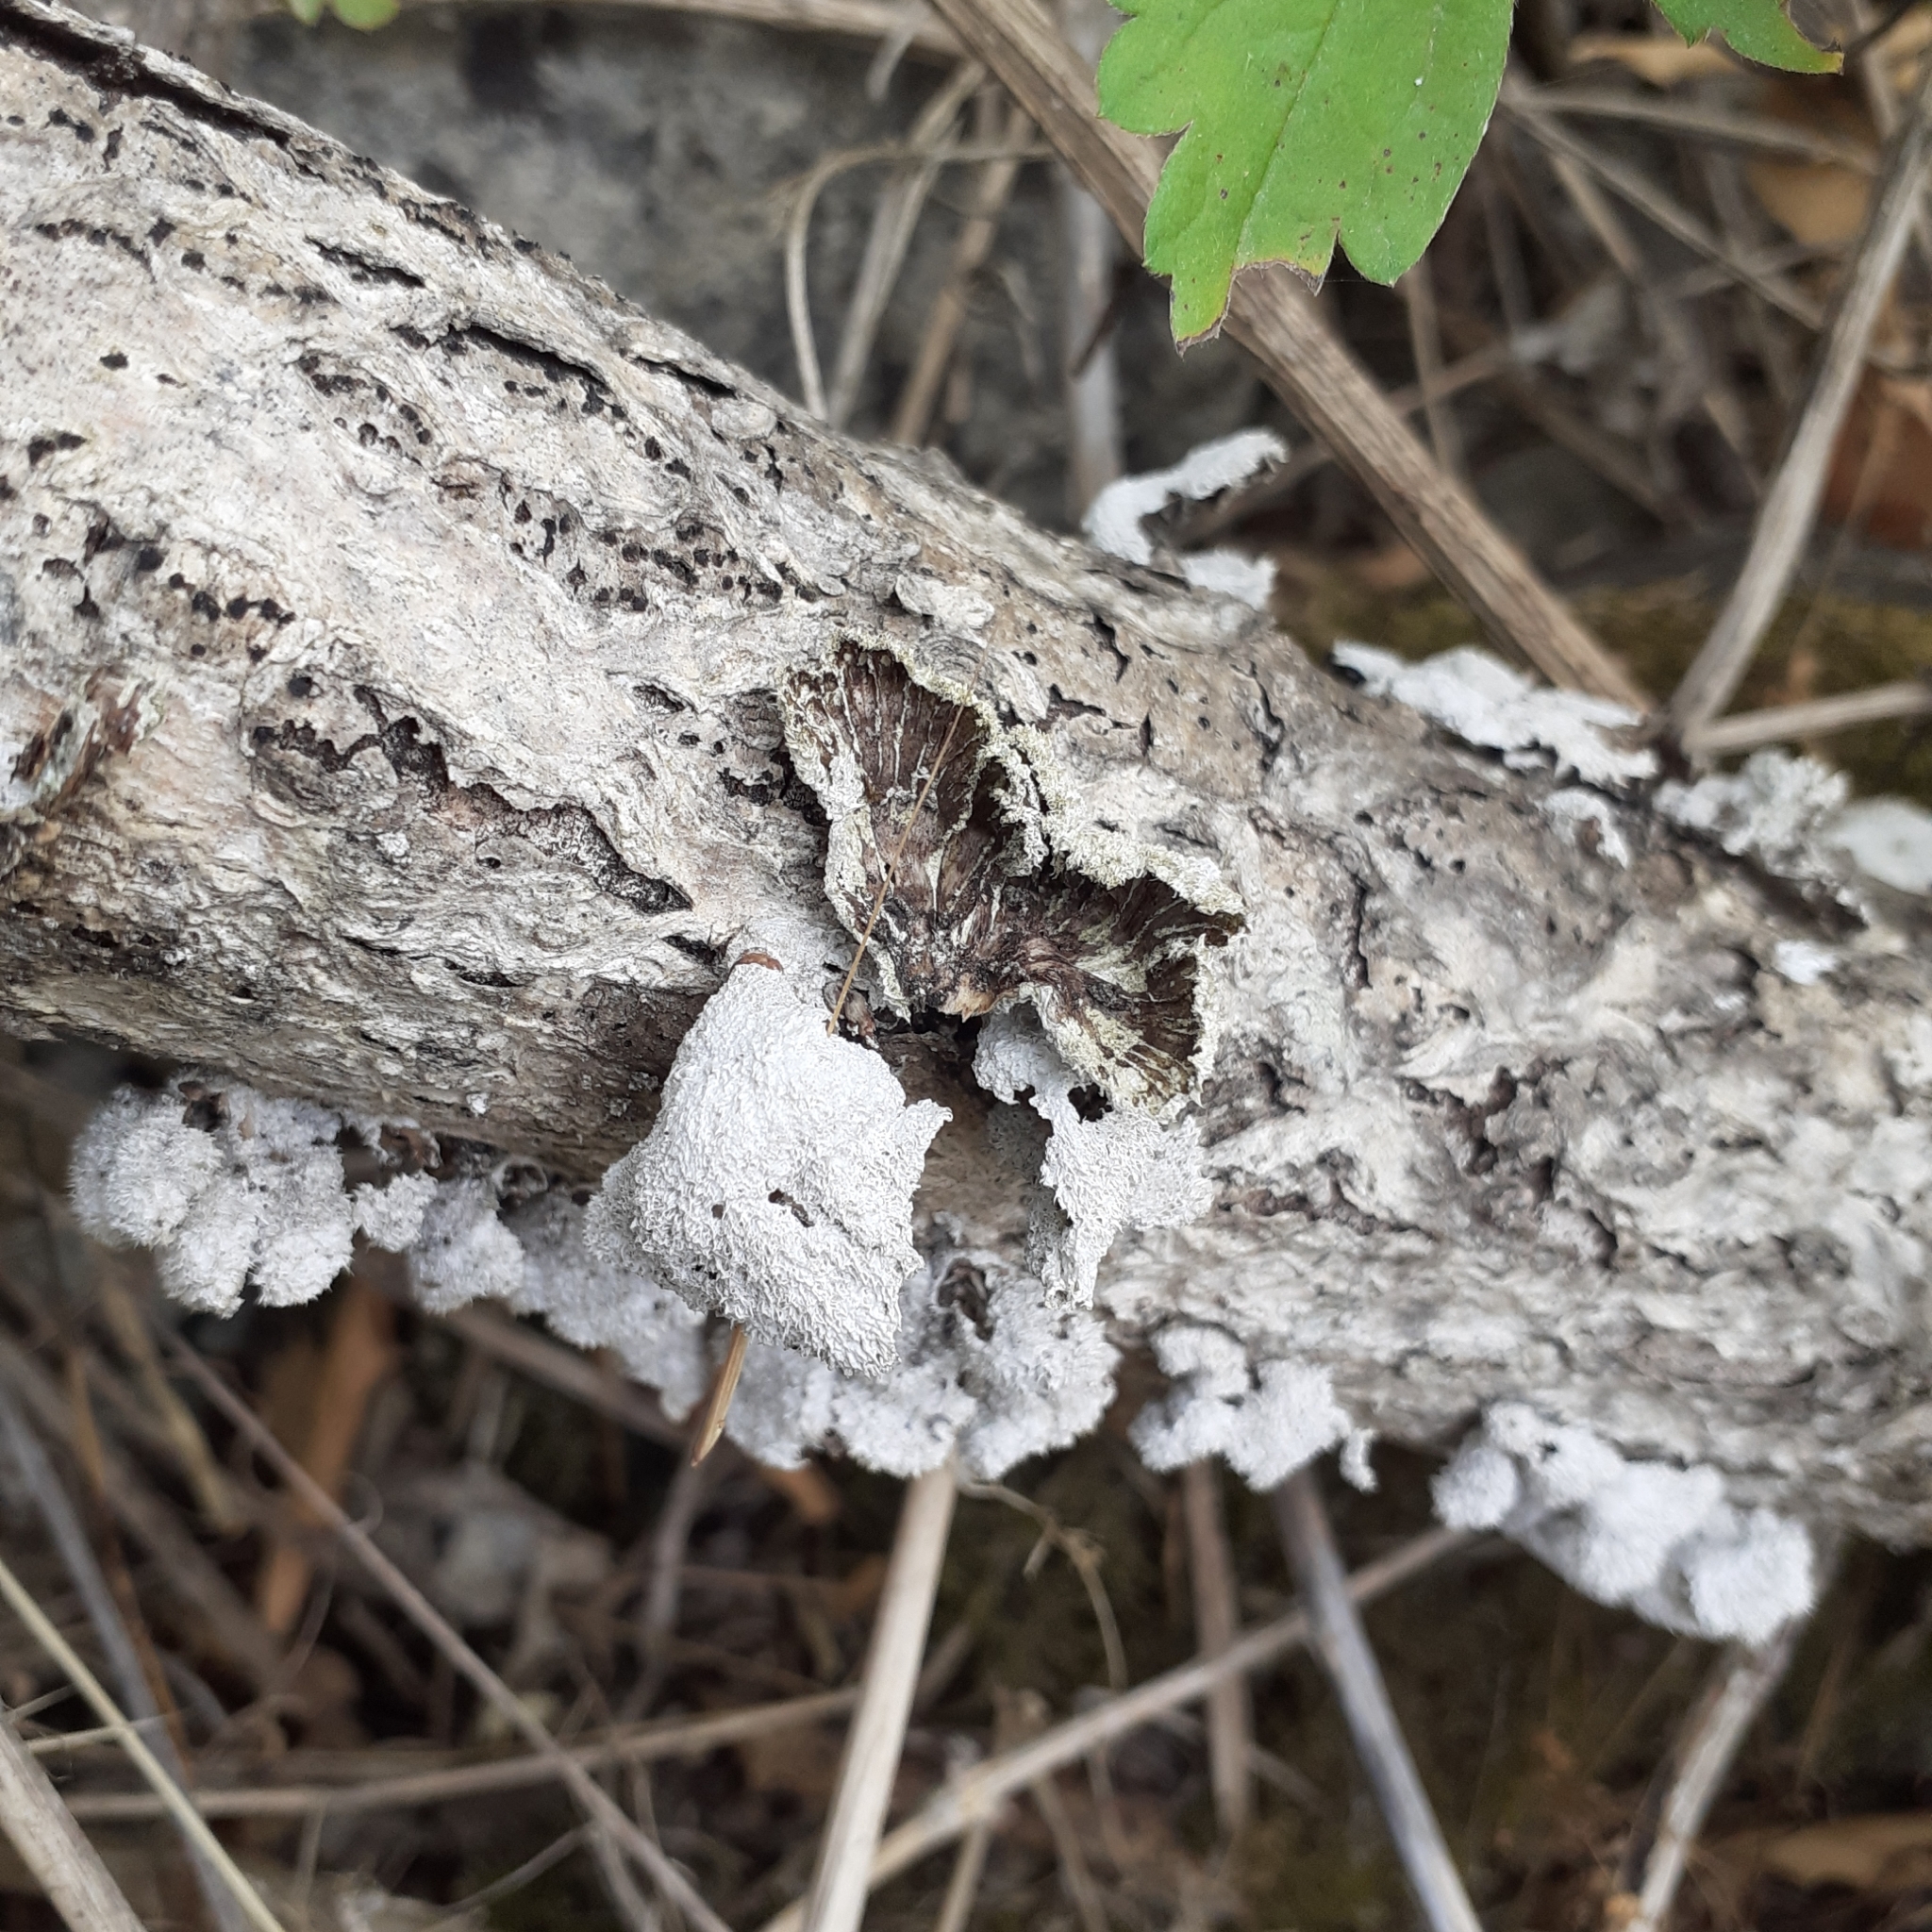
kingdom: Fungi
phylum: Basidiomycota
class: Agaricomycetes
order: Agaricales
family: Schizophyllaceae
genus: Schizophyllum
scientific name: Schizophyllum commune
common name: Common porecrust
